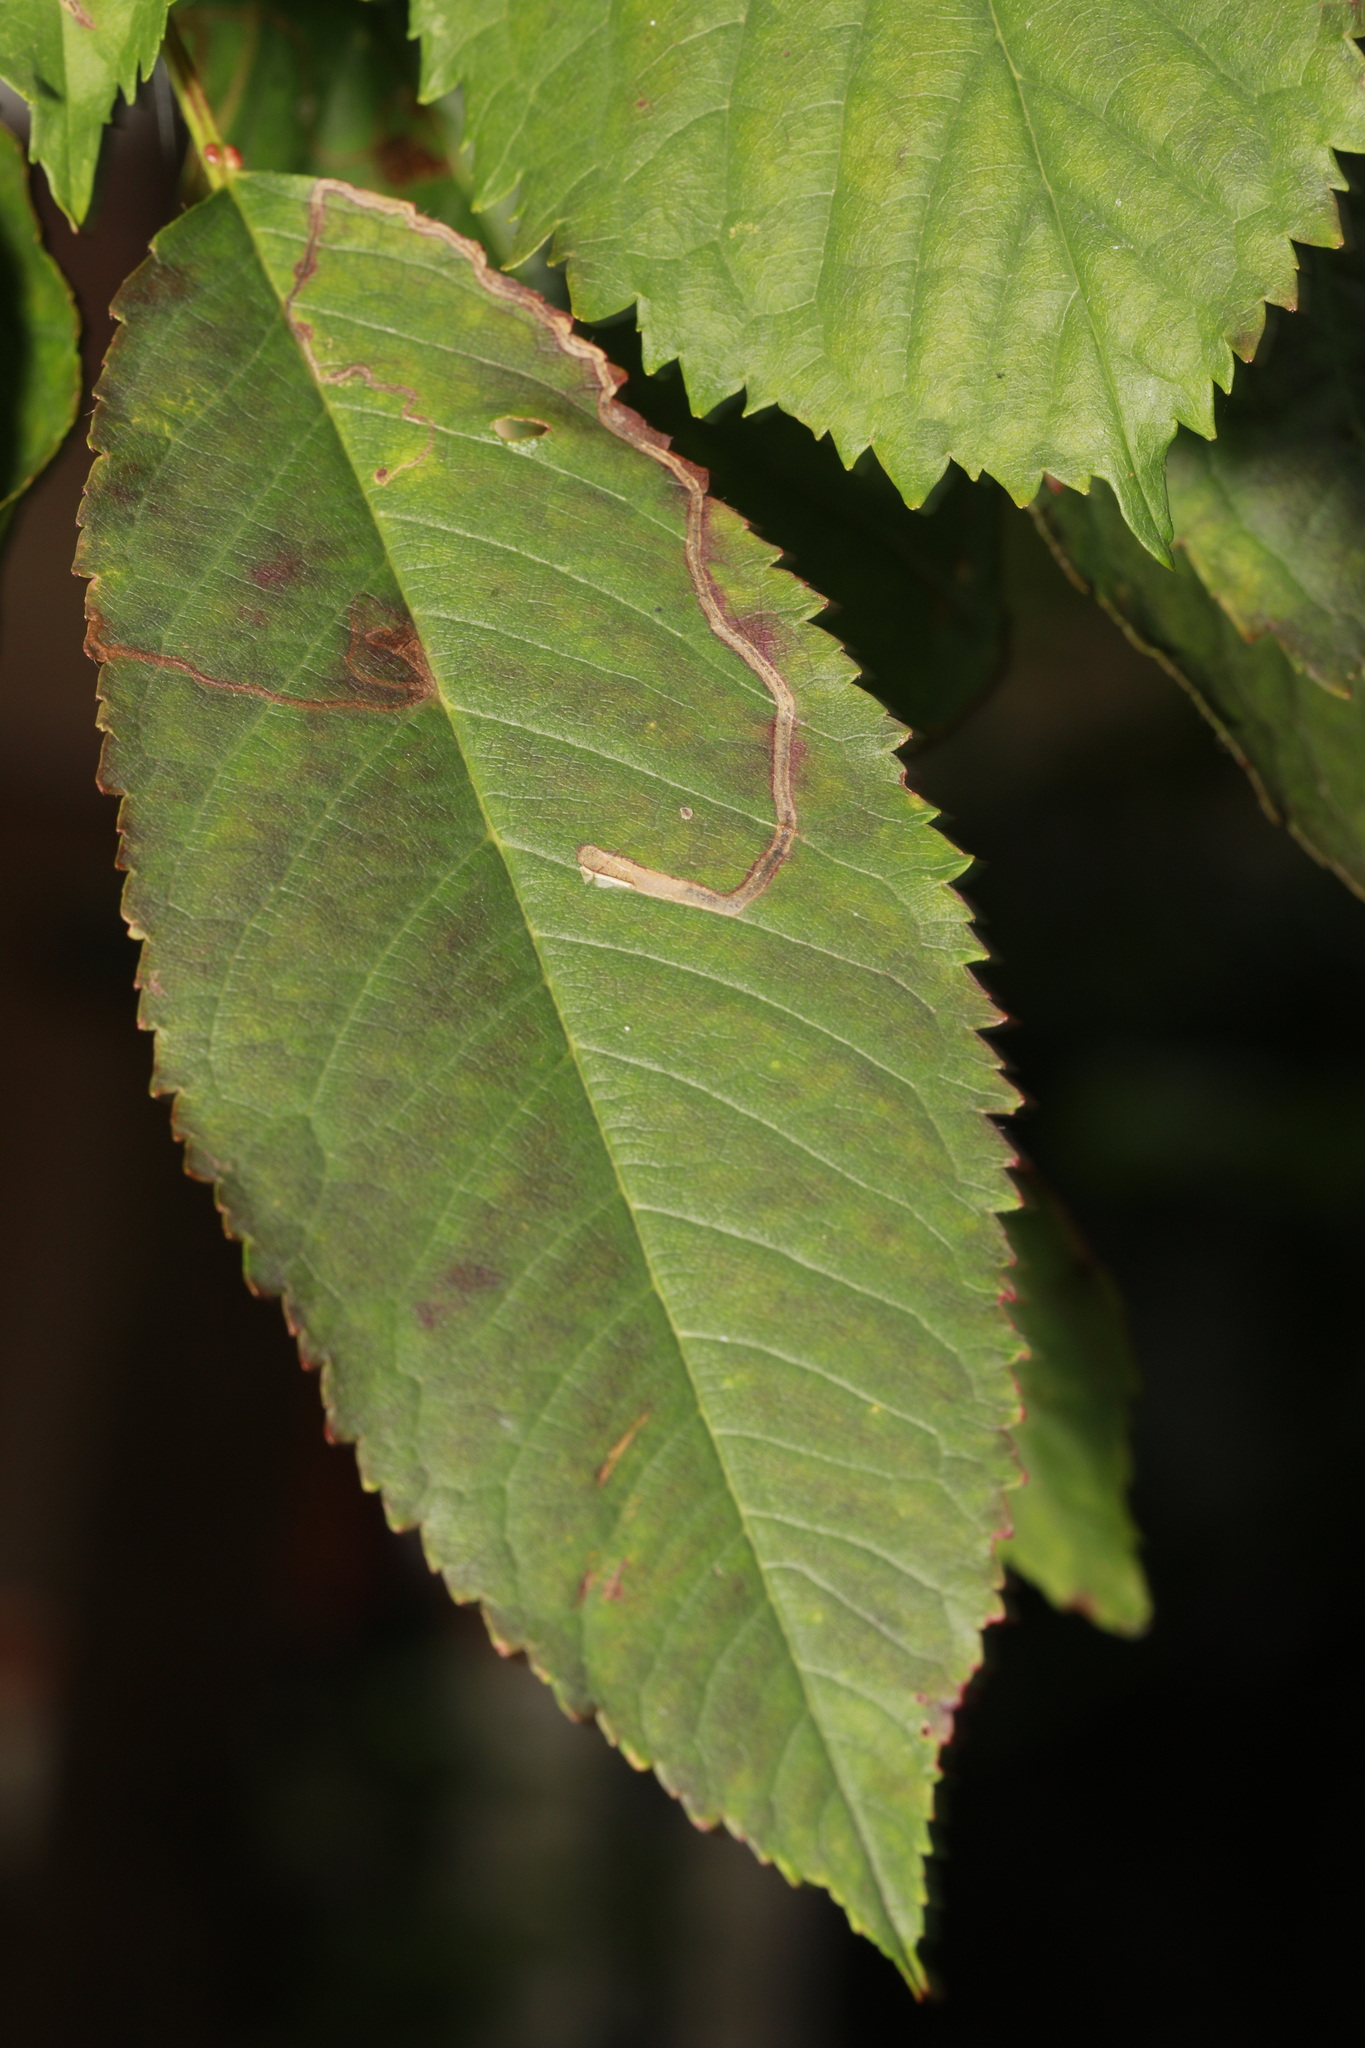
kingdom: Animalia
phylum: Arthropoda
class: Insecta
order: Lepidoptera
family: Lyonetiidae
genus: Lyonetia
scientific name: Lyonetia clerkella
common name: Apple leaf miner
